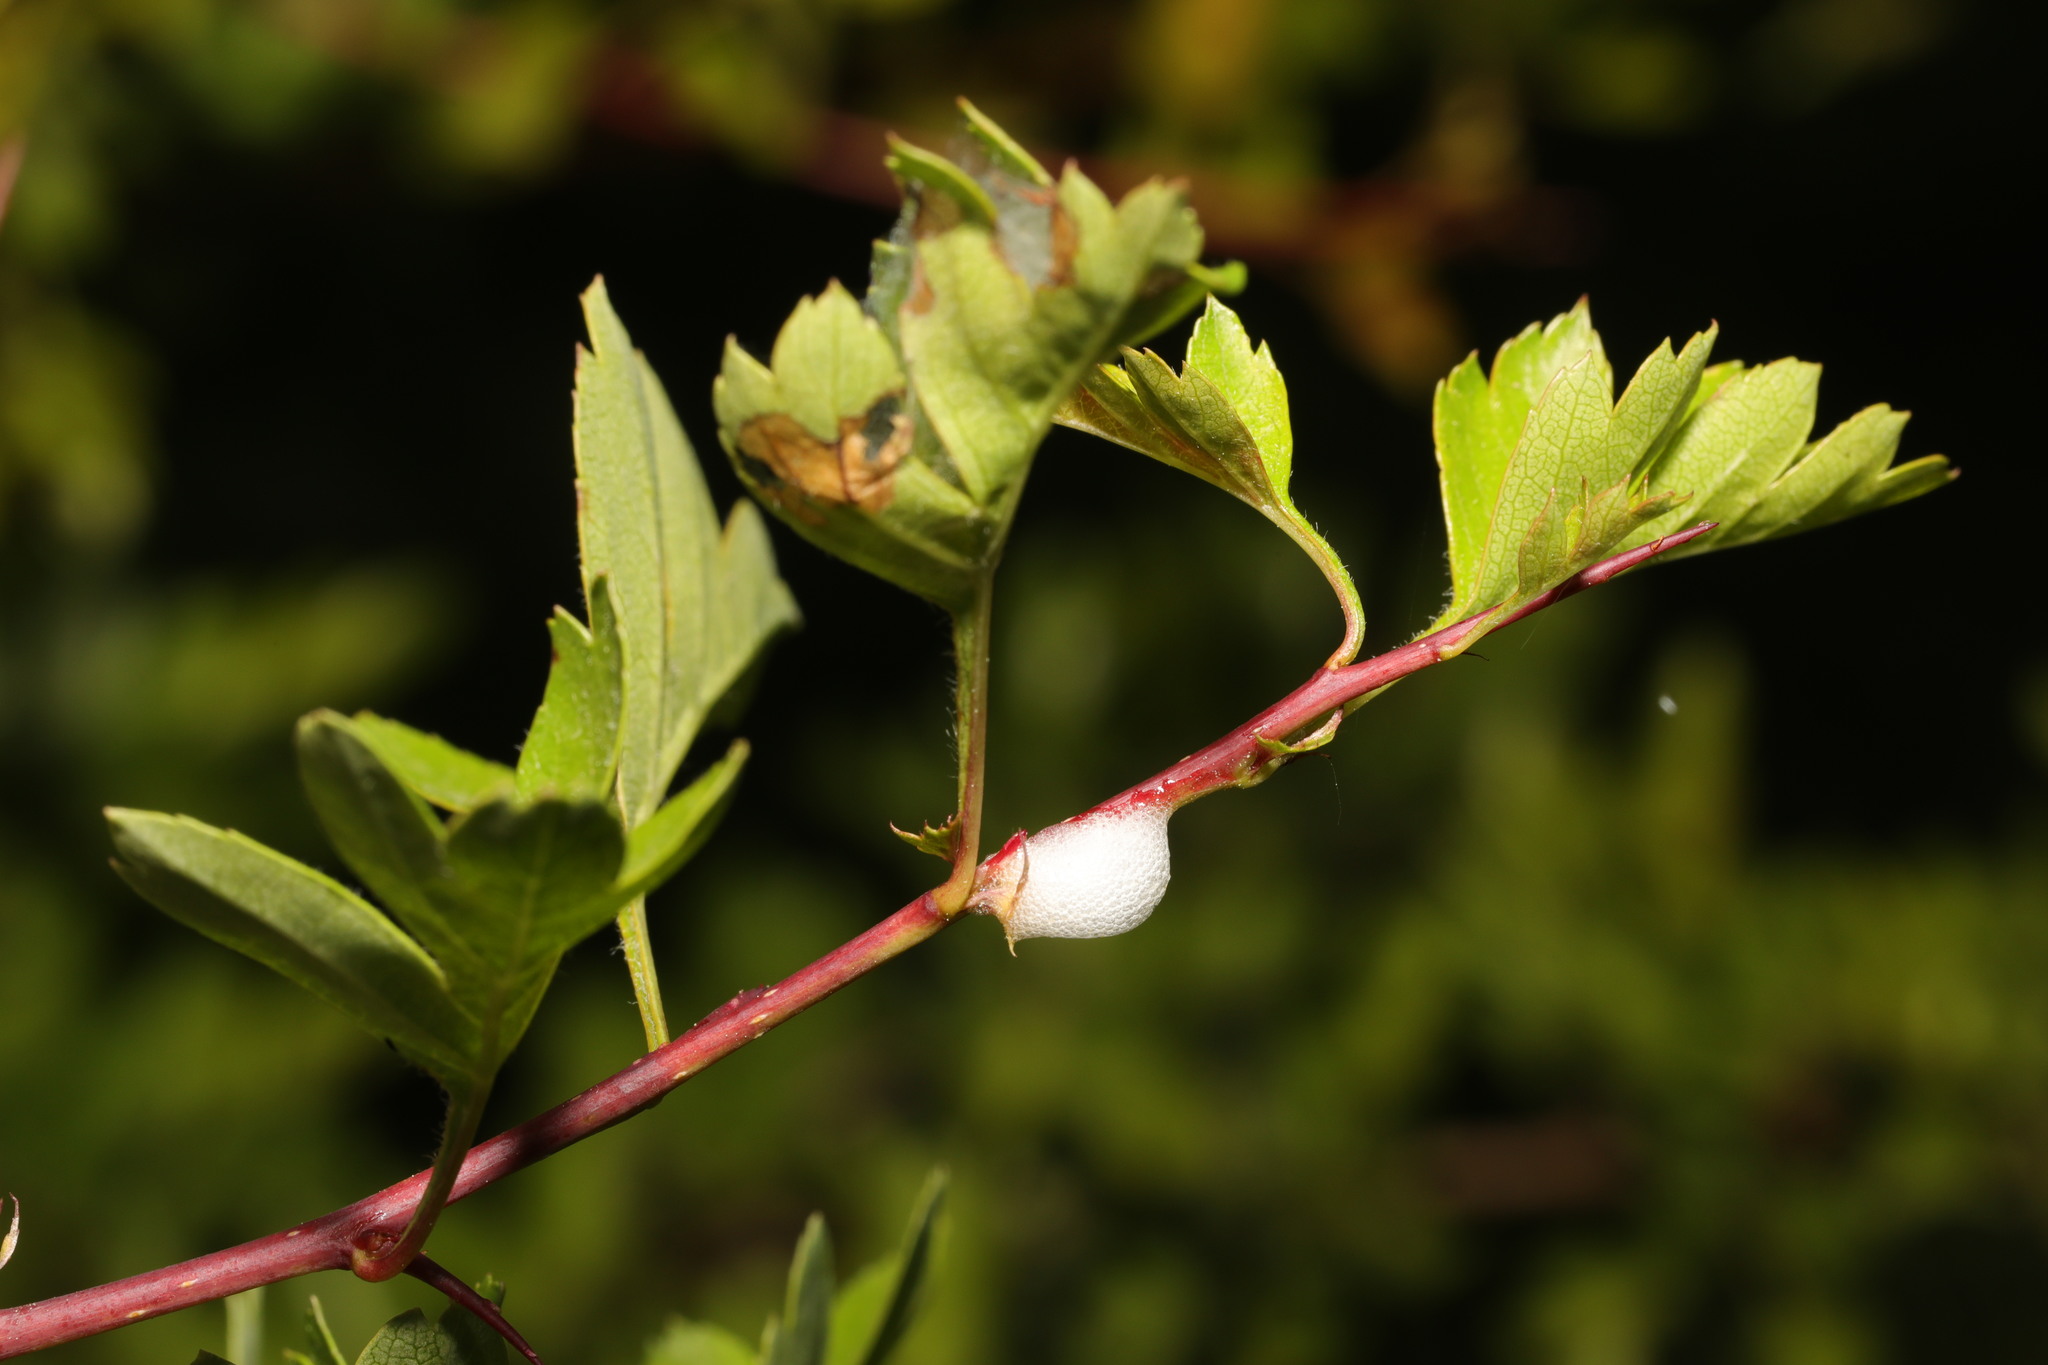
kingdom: Animalia
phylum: Arthropoda
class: Insecta
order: Hemiptera
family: Aphrophoridae
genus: Philaenus
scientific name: Philaenus spumarius
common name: Meadow spittlebug
